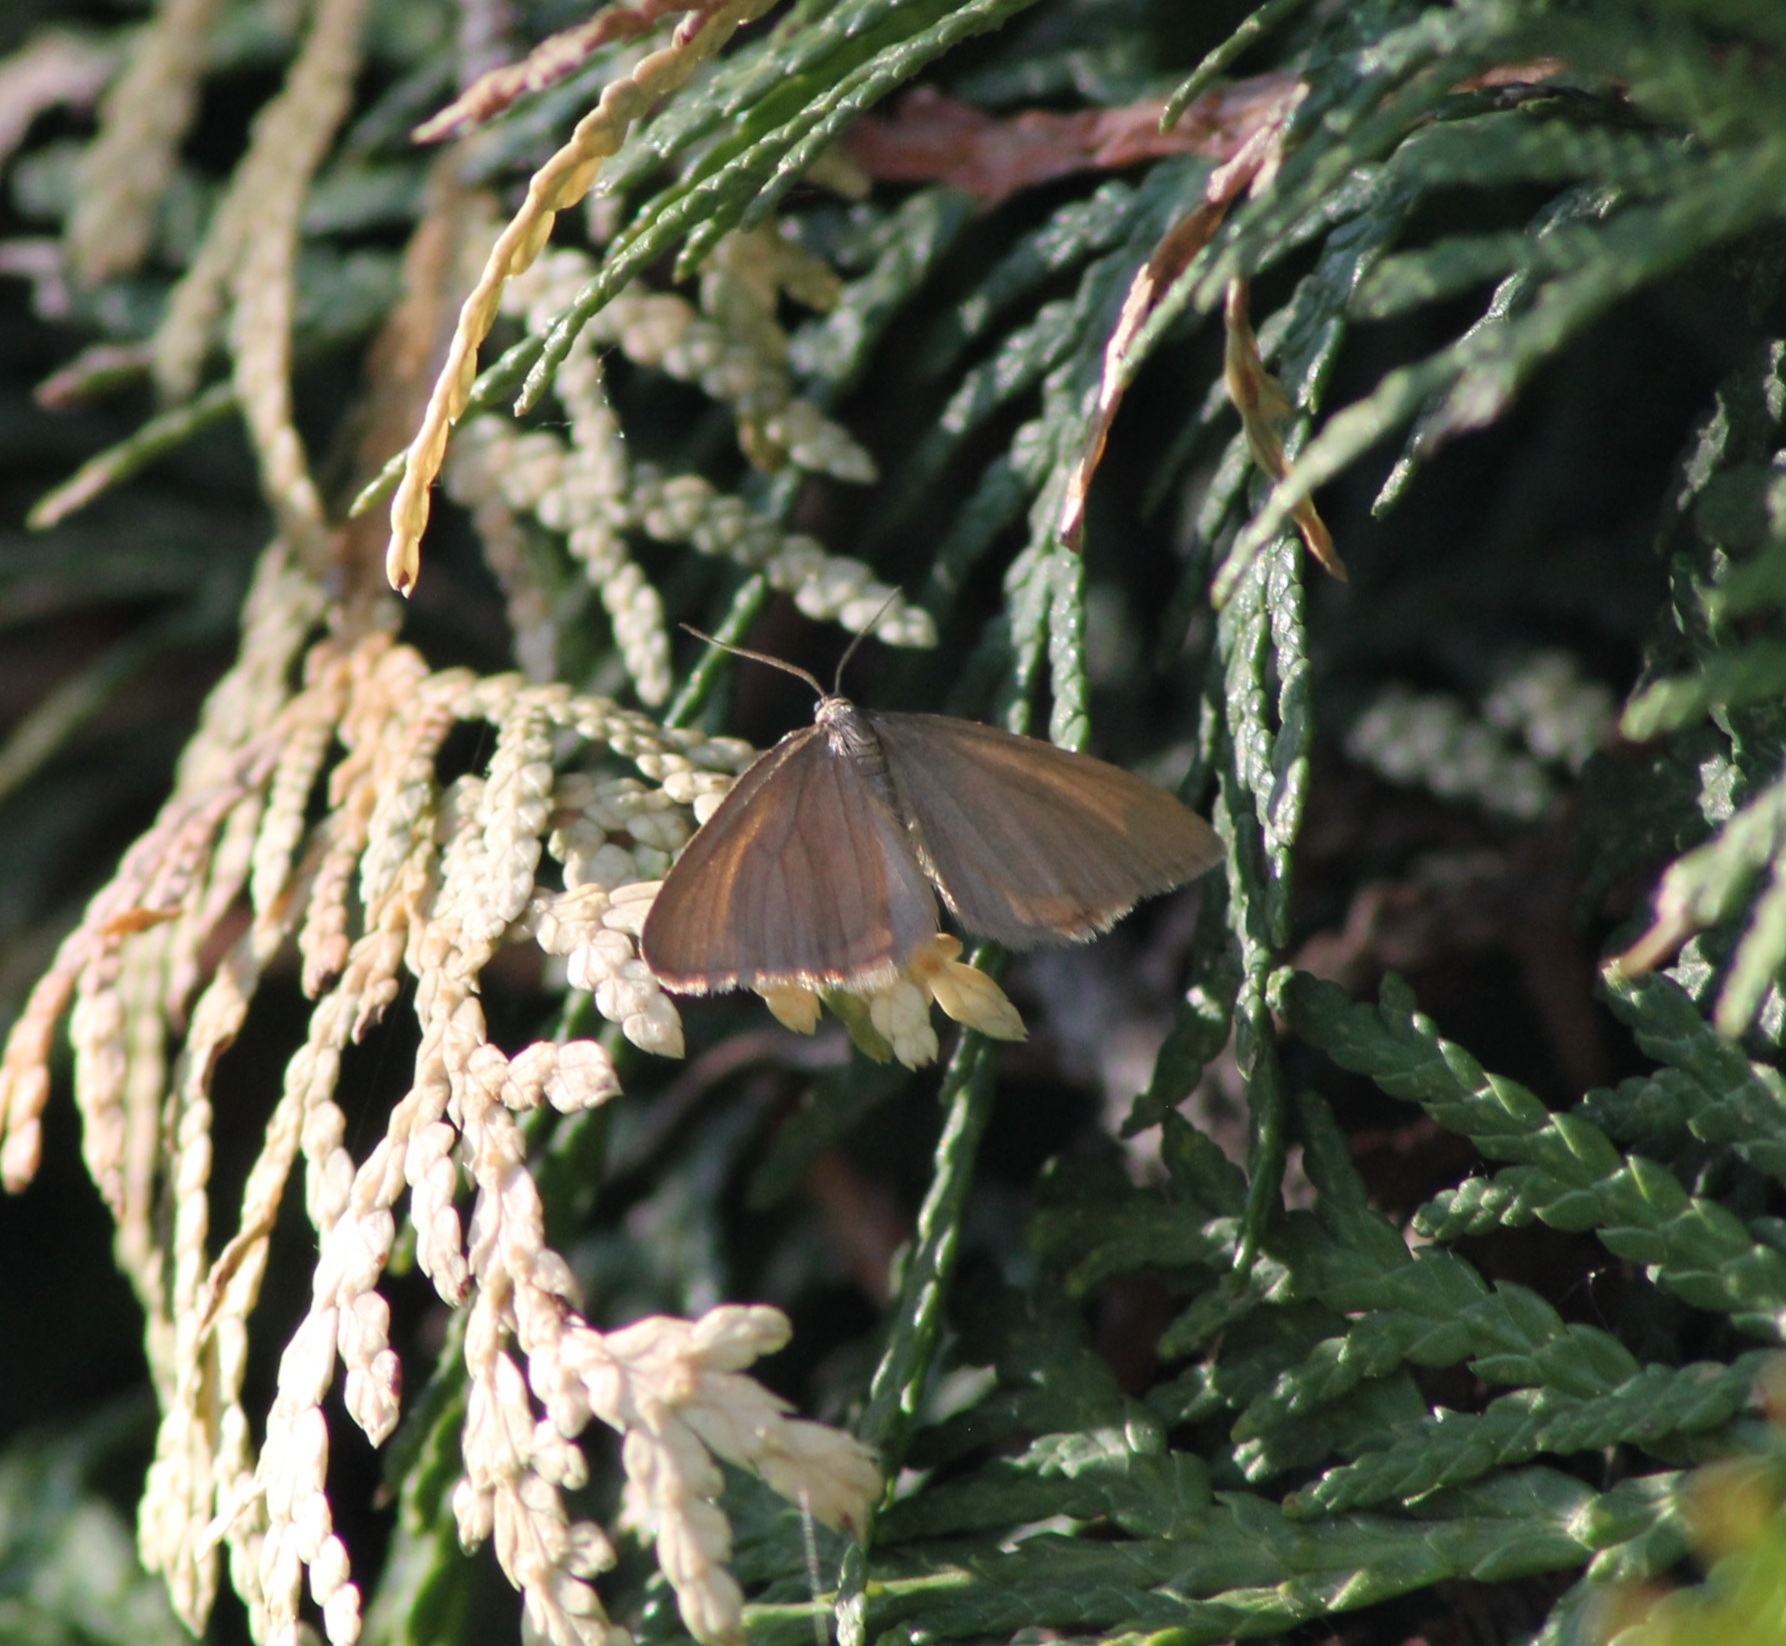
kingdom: Animalia
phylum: Arthropoda
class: Insecta
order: Lepidoptera
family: Geometridae
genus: Minoa
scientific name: Minoa murinata
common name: Drab looper
